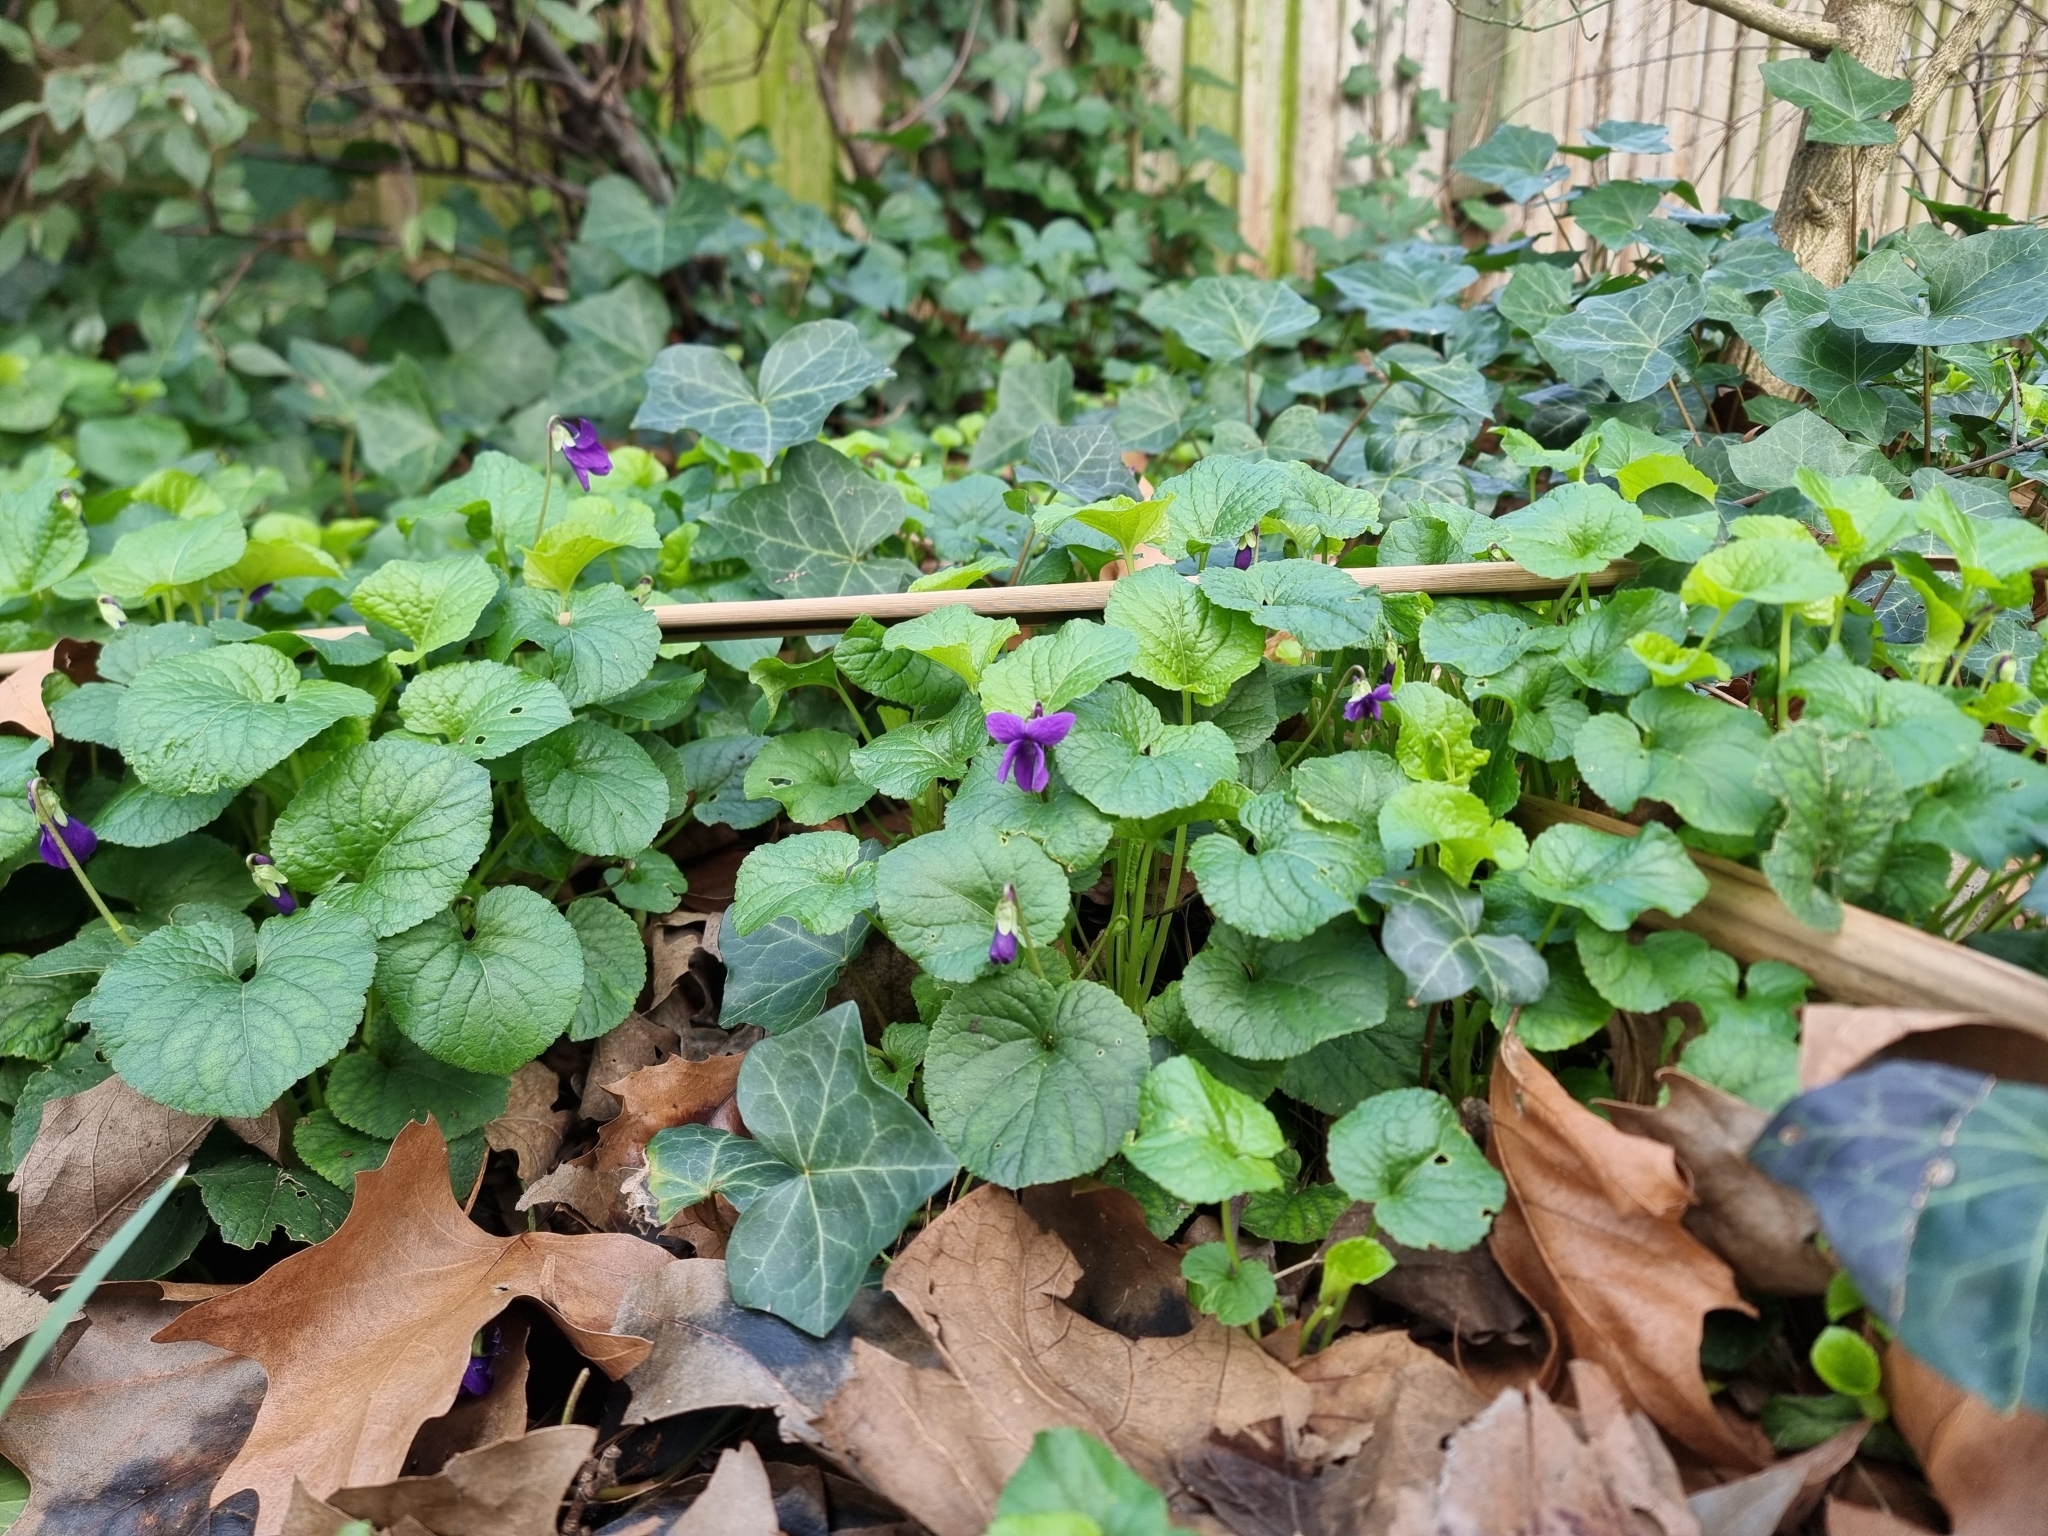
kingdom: Plantae
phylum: Tracheophyta
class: Magnoliopsida
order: Malpighiales
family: Violaceae
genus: Viola
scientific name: Viola odorata
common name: Sweet violet
